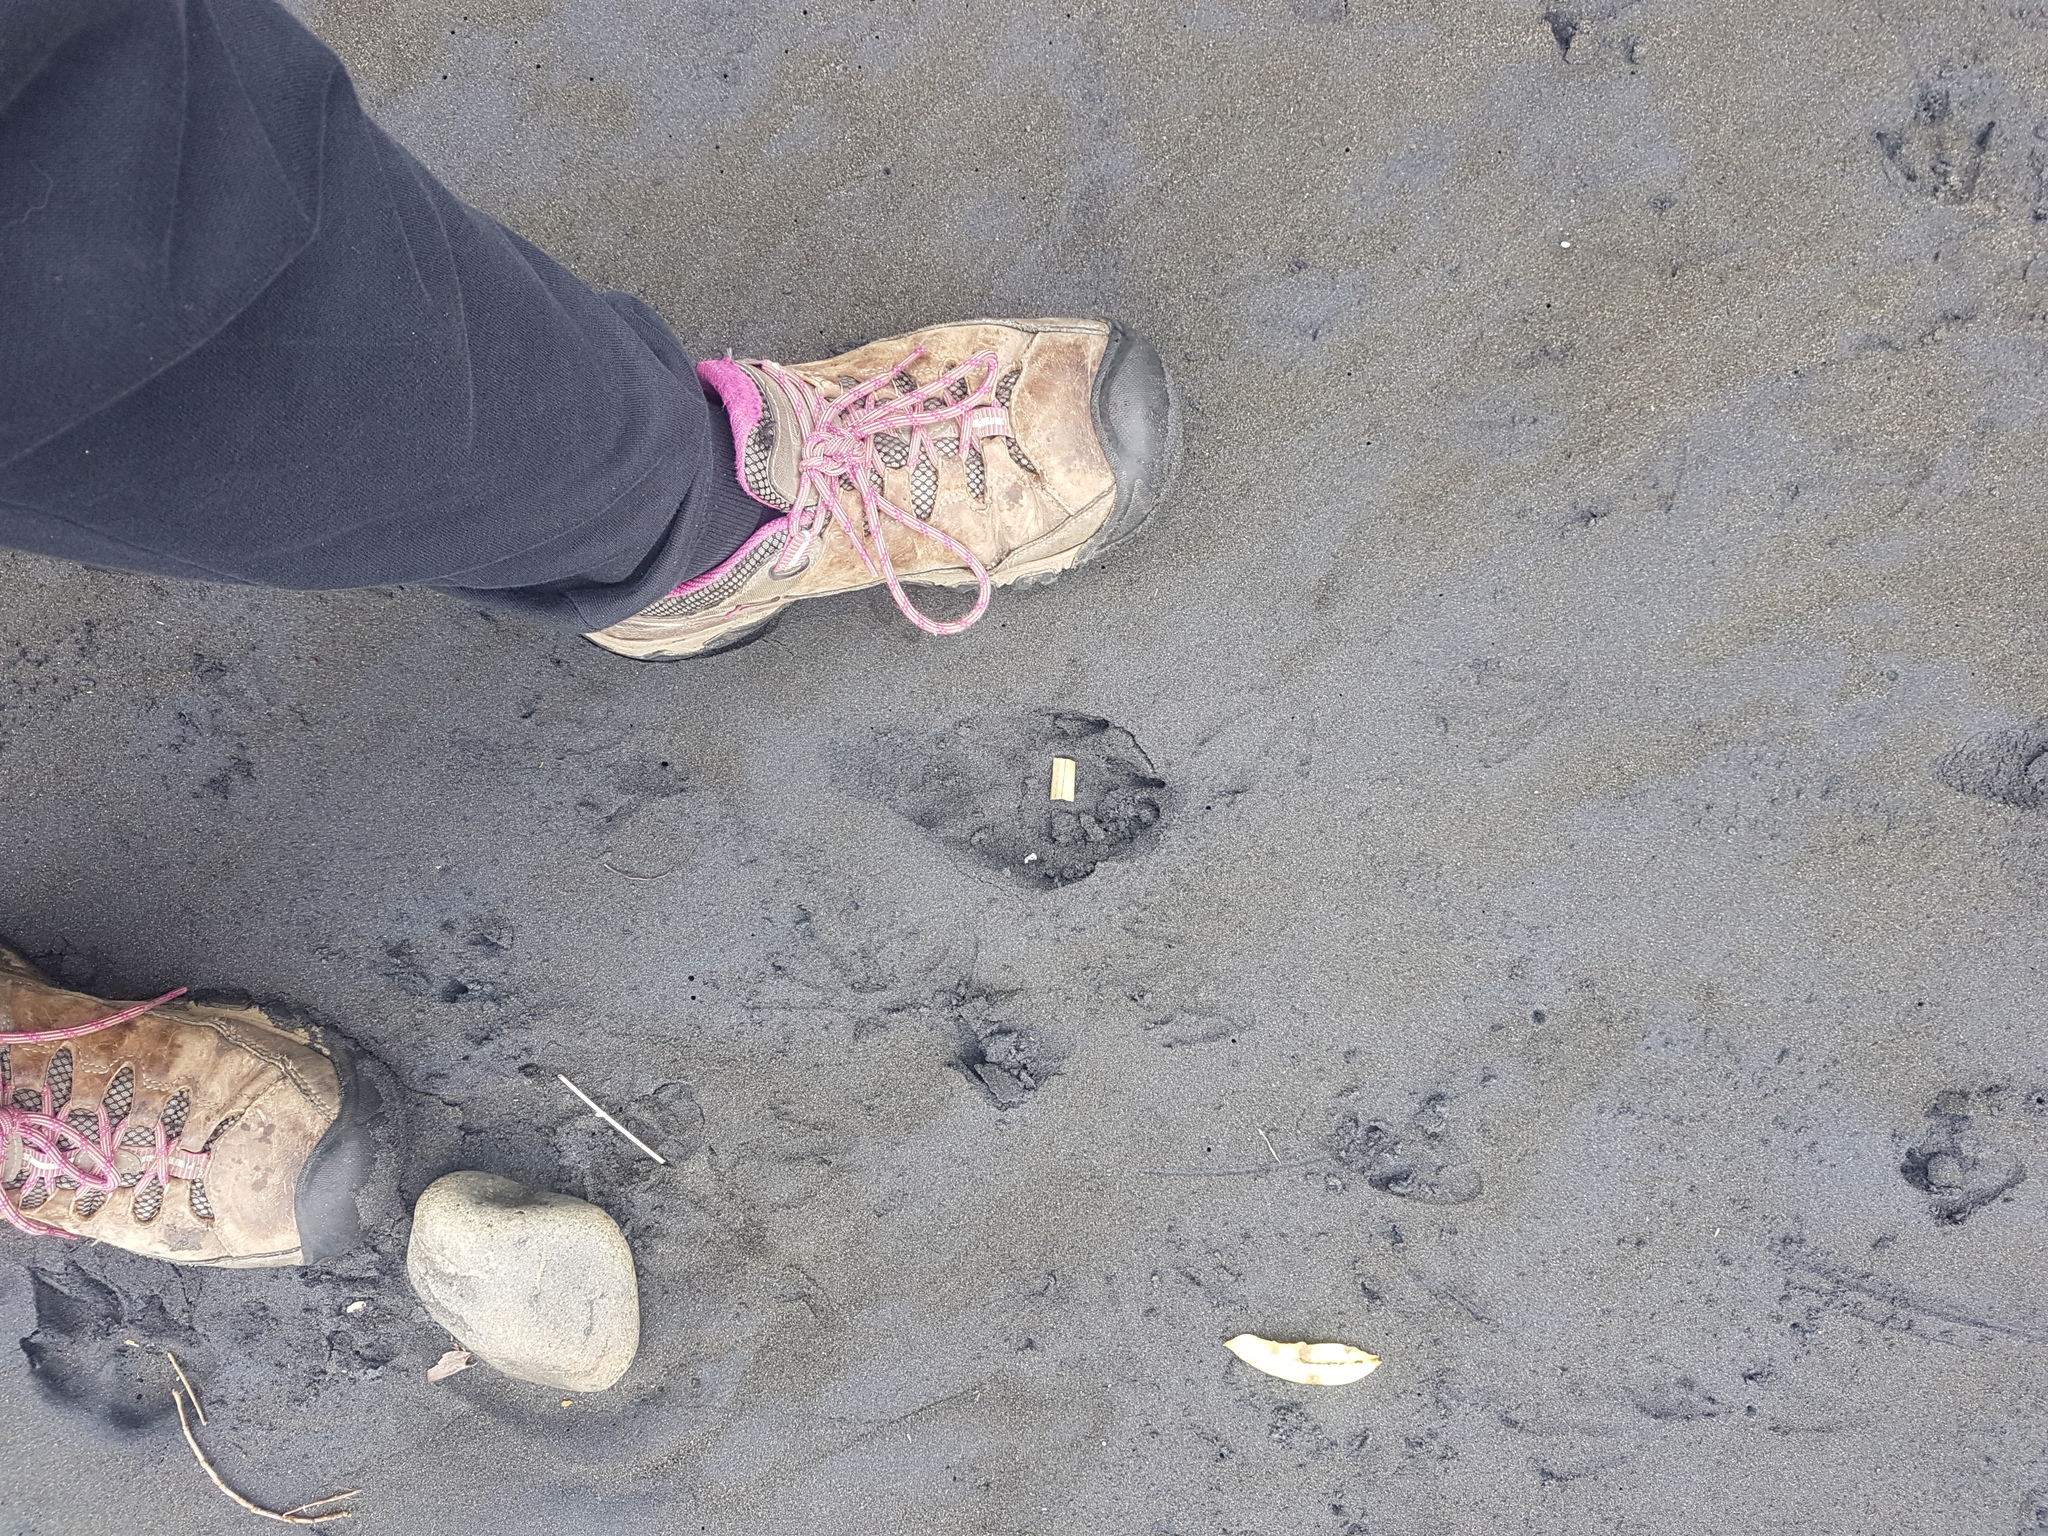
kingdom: Animalia
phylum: Chordata
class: Aves
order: Sphenisciformes
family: Spheniscidae
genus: Eudyptula
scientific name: Eudyptula minor
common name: Little penguin
